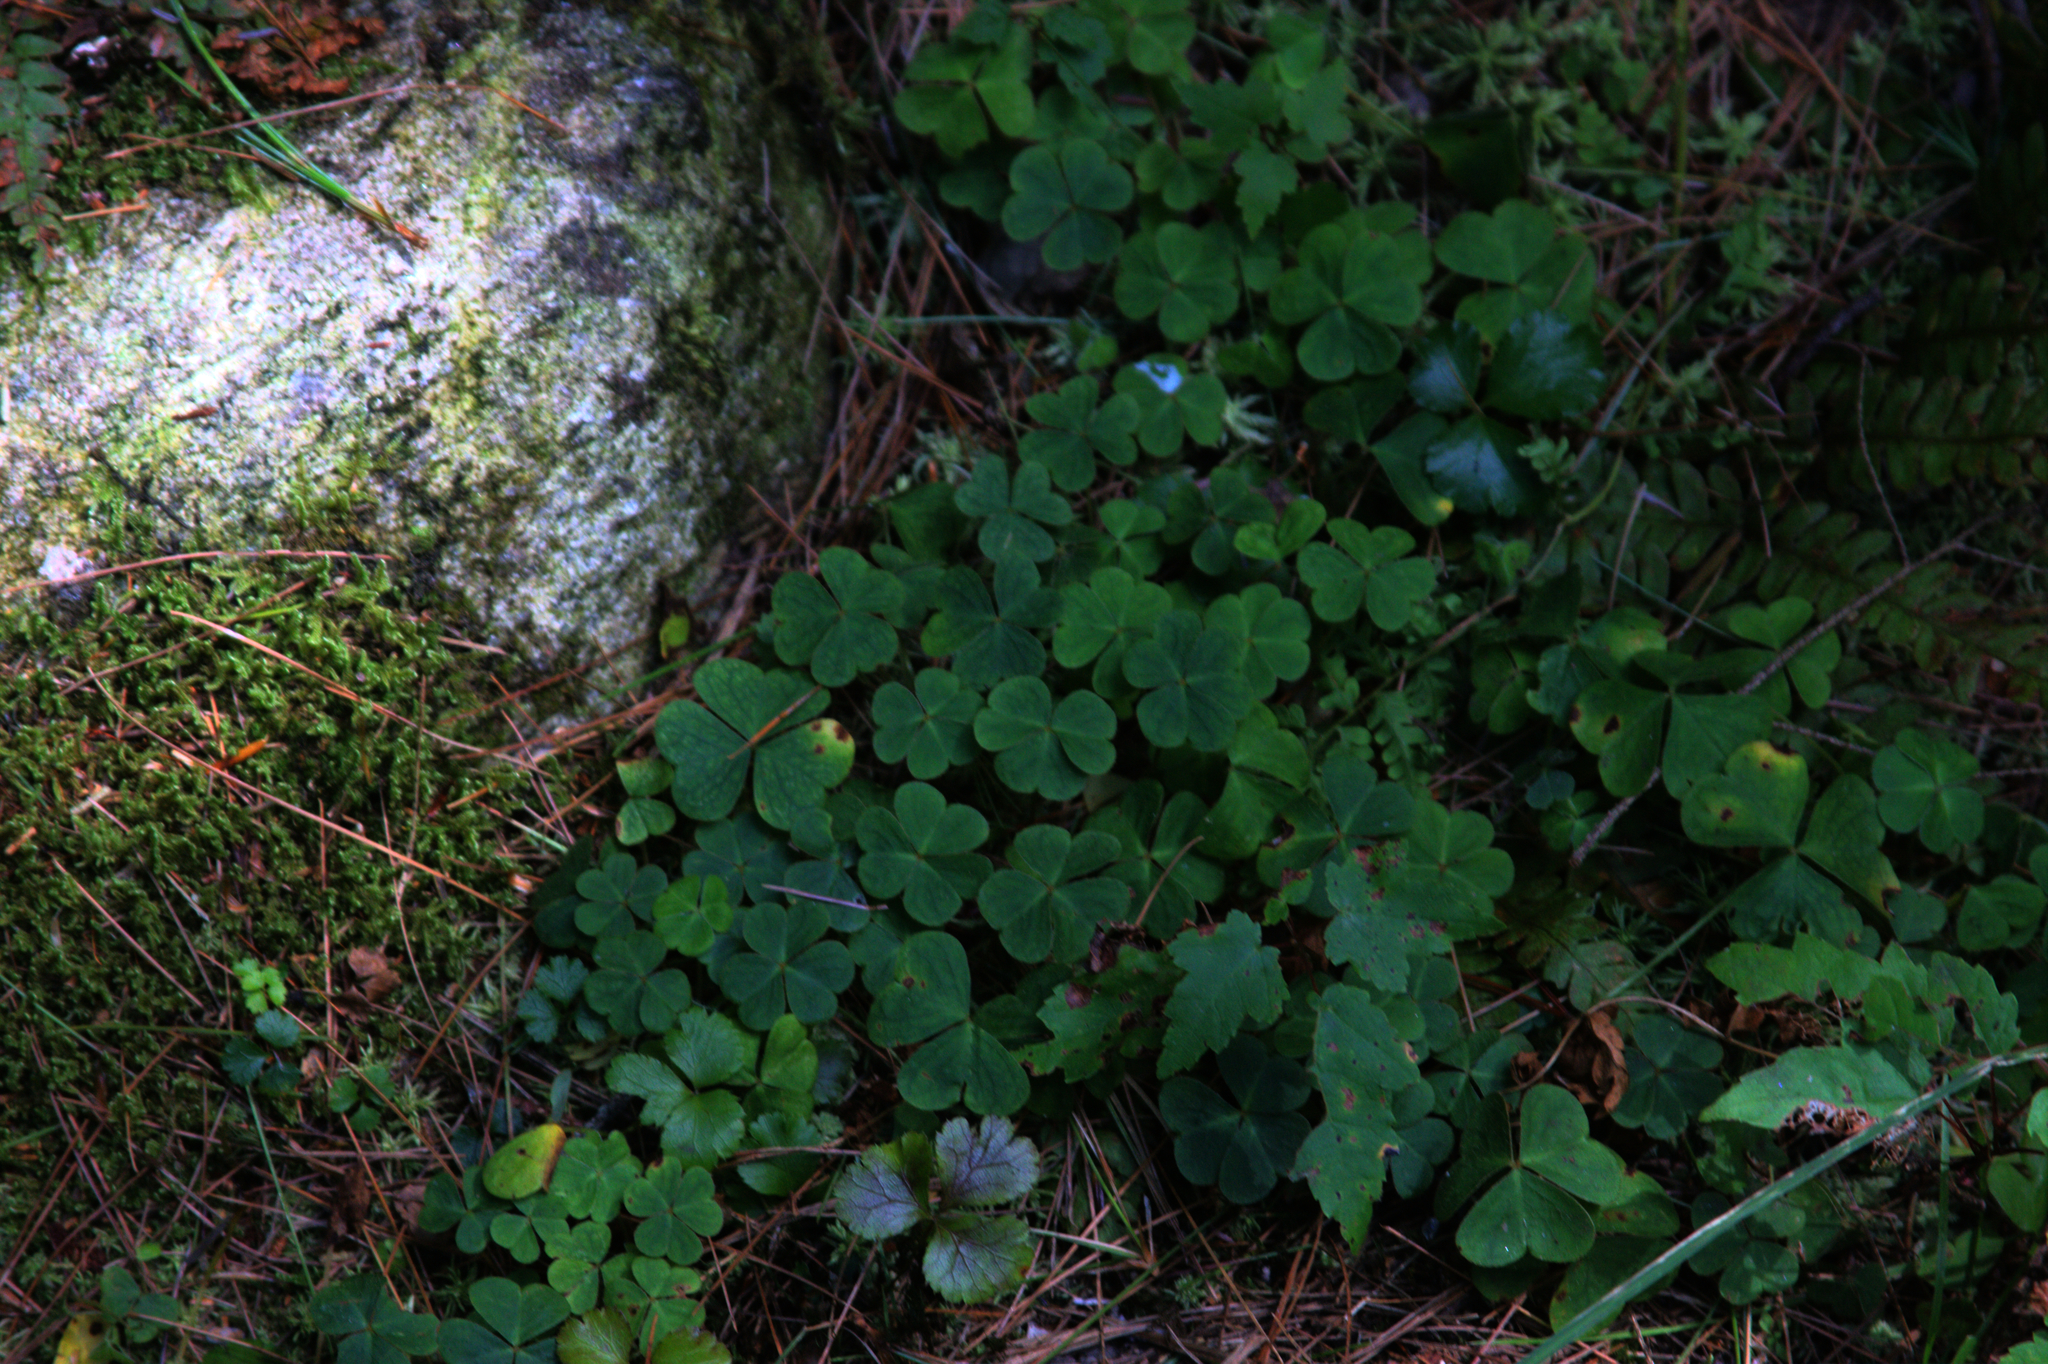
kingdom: Plantae
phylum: Tracheophyta
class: Magnoliopsida
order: Oxalidales
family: Oxalidaceae
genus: Oxalis
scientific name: Oxalis montana
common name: American wood-sorrel
